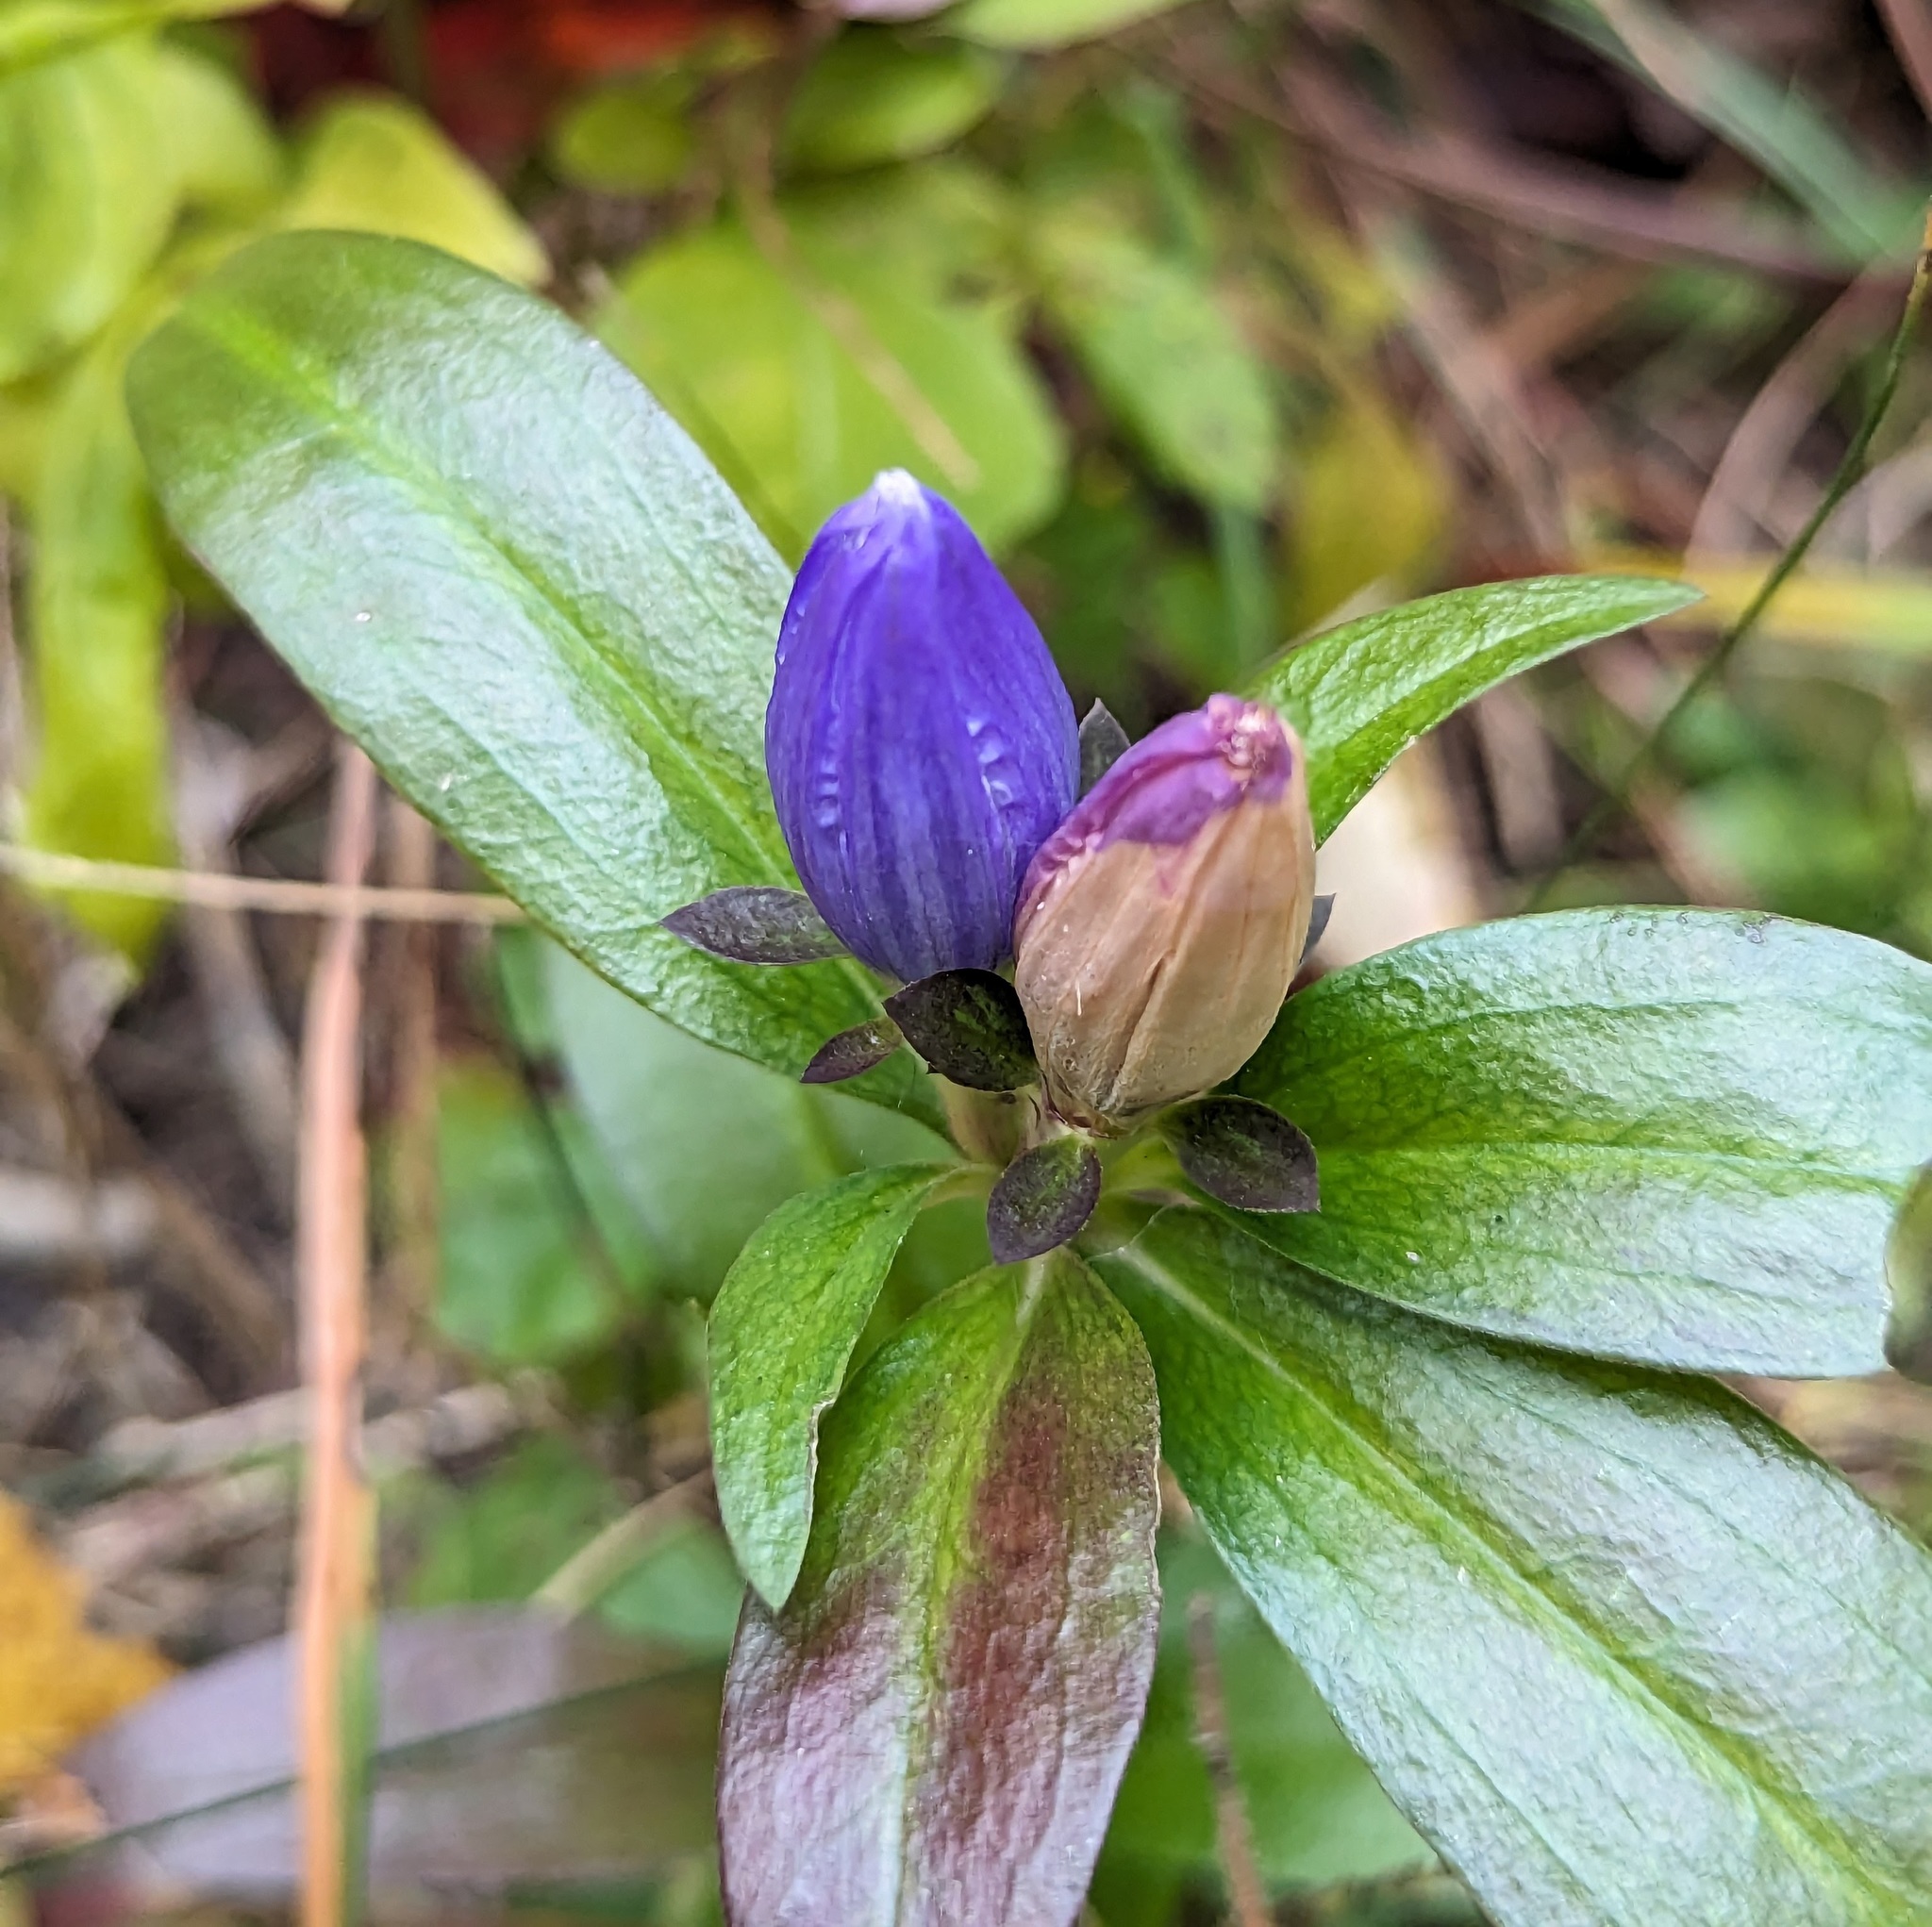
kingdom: Plantae
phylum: Tracheophyta
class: Magnoliopsida
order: Gentianales
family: Gentianaceae
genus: Gentiana
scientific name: Gentiana andrewsii
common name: Bottle gentian
